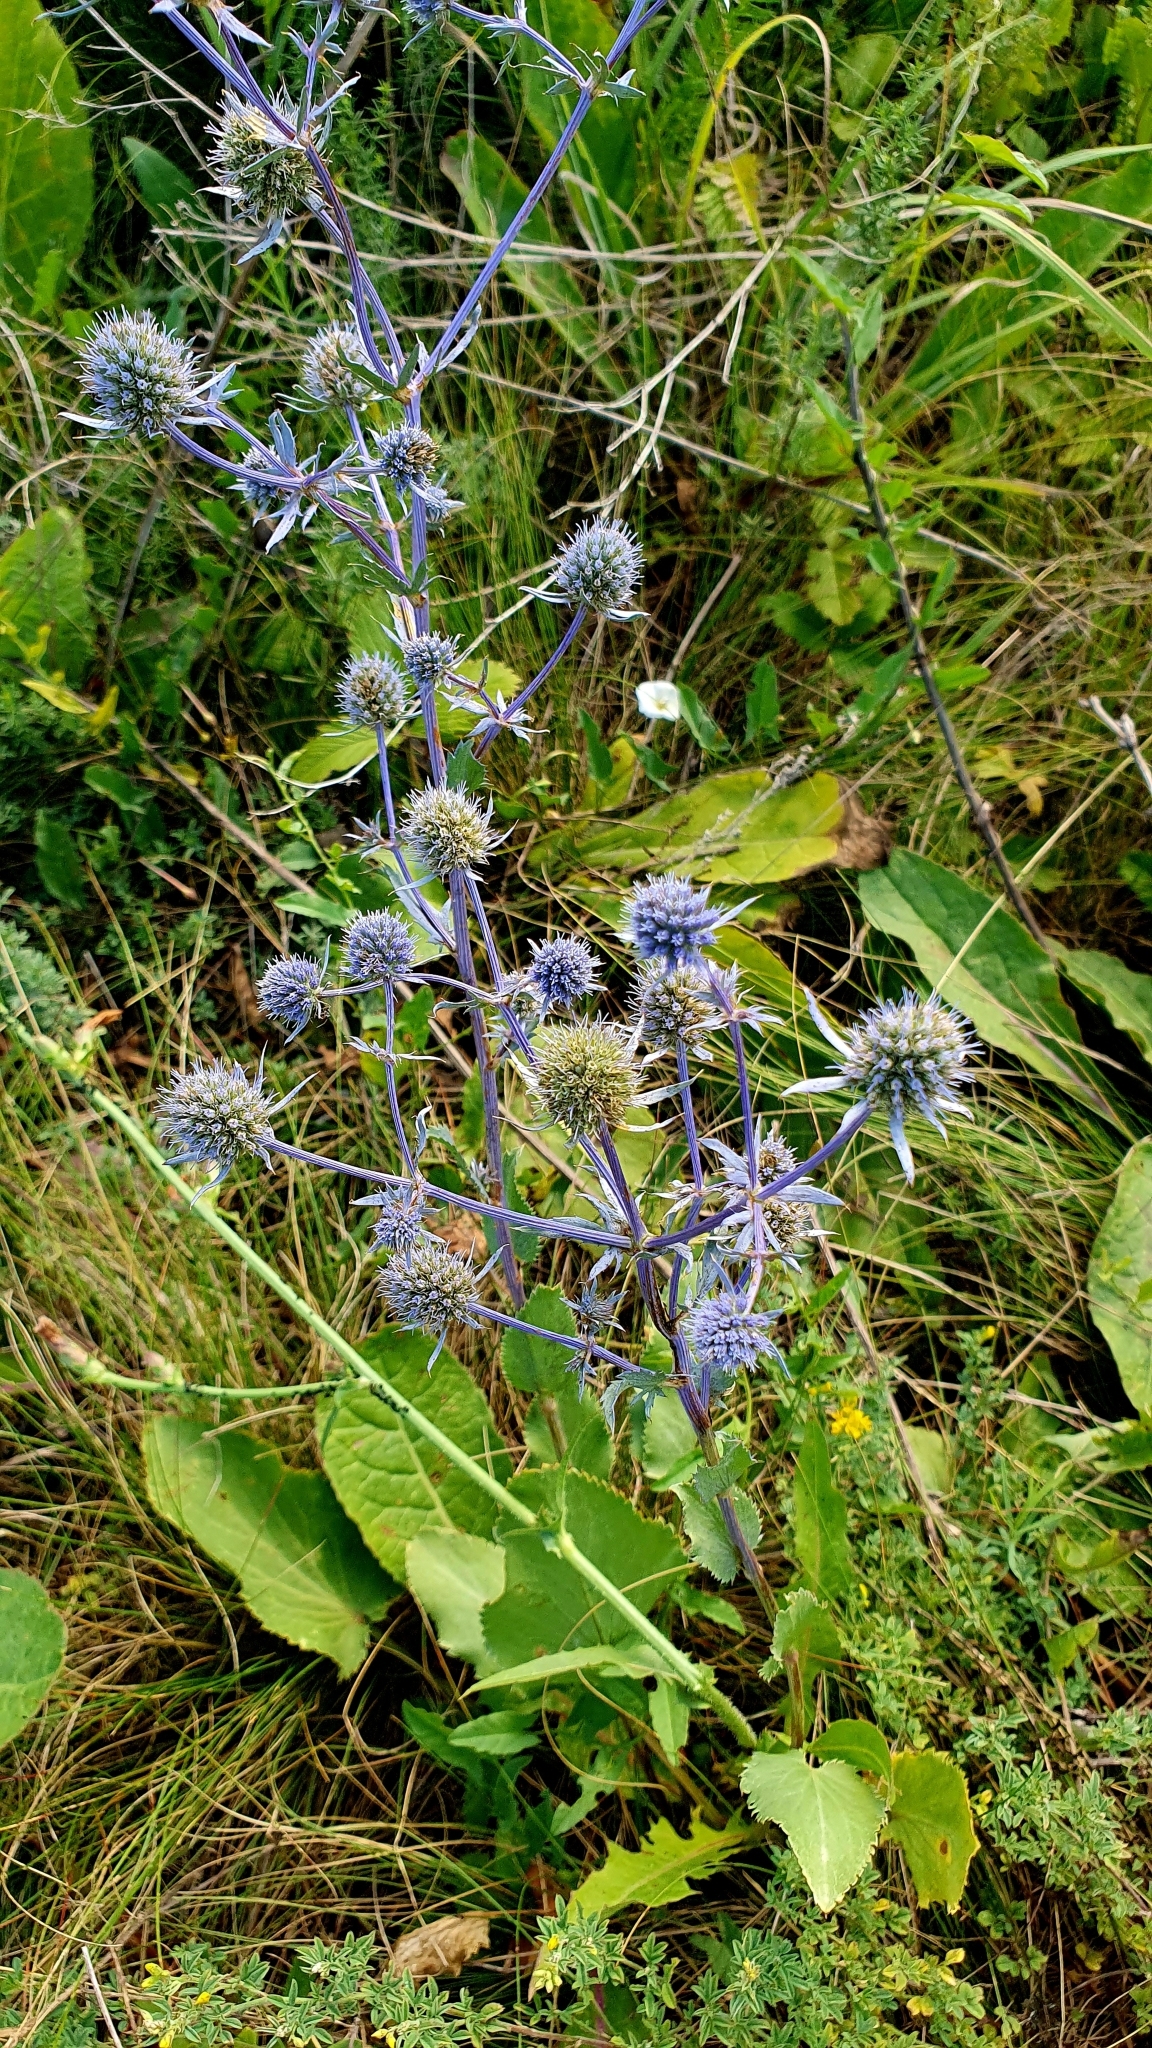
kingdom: Plantae
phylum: Tracheophyta
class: Magnoliopsida
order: Apiales
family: Apiaceae
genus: Eryngium
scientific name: Eryngium planum
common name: Blue eryngo
